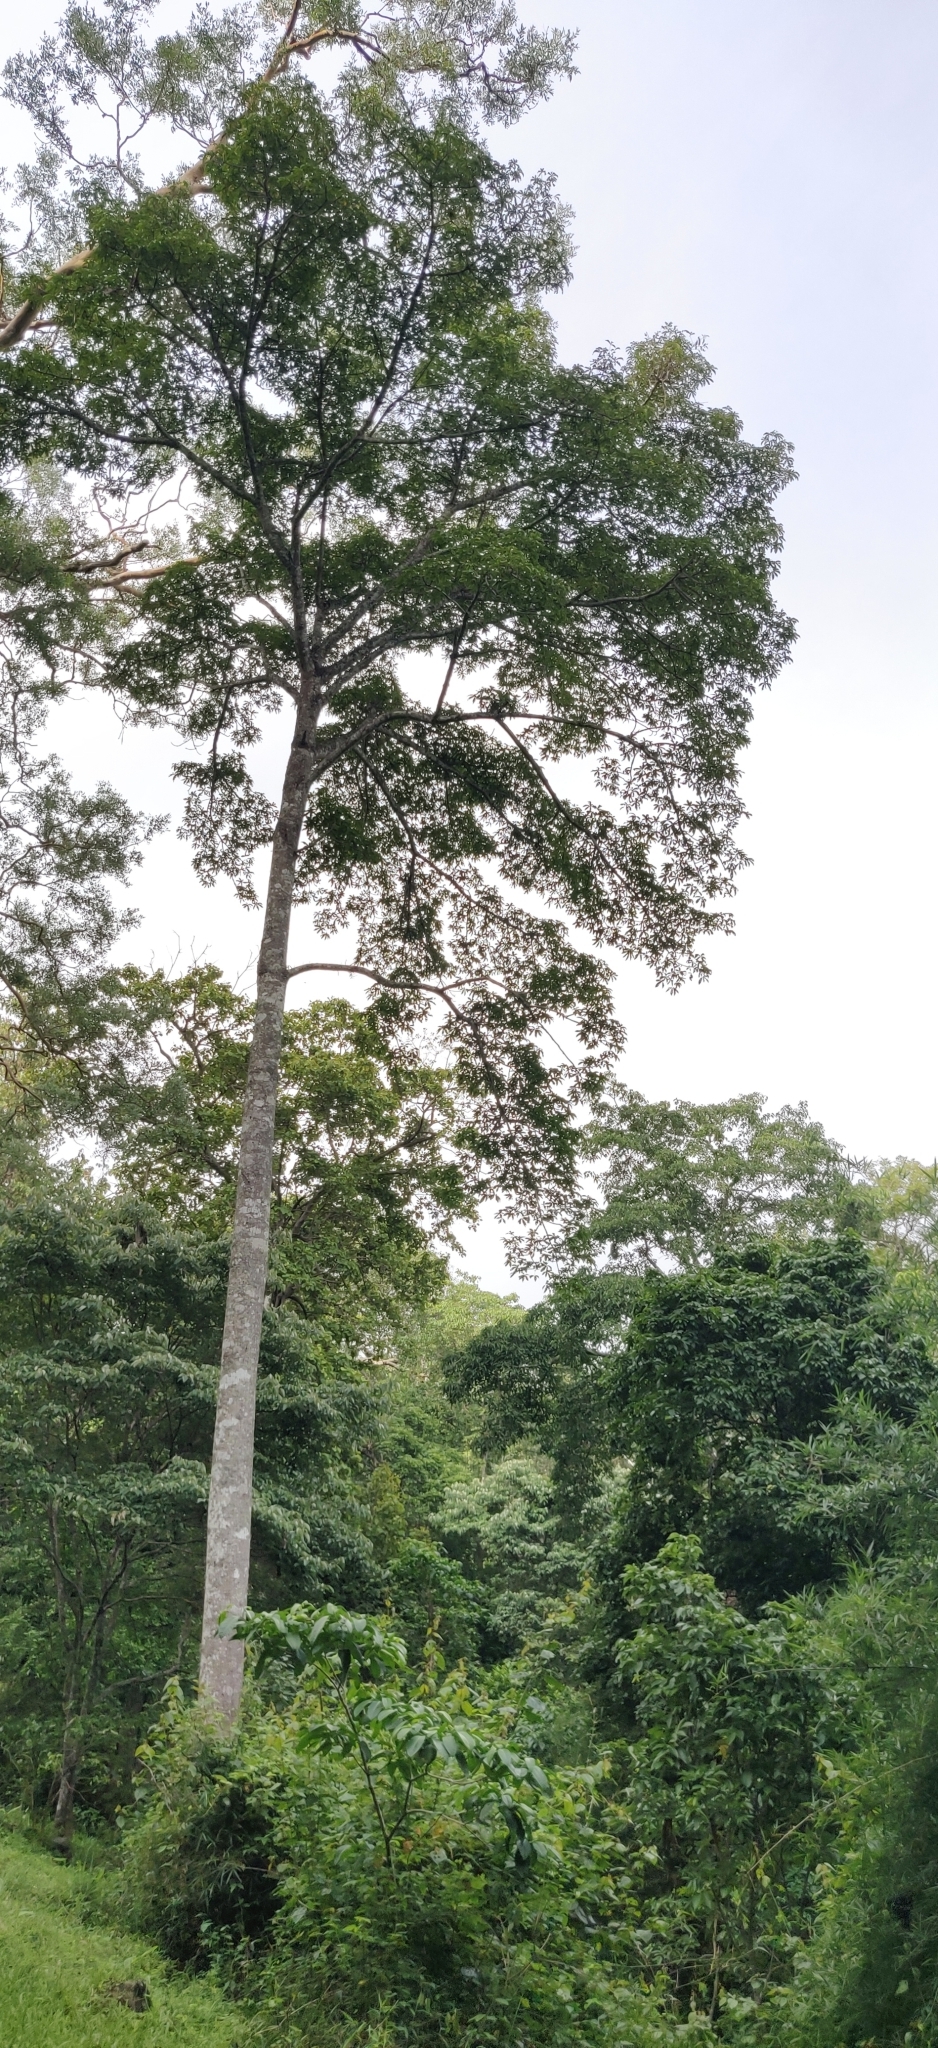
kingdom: Plantae
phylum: Tracheophyta
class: Magnoliopsida
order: Malvales
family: Malvaceae
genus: Bombax
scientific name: Bombax ceiba
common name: Northern-cottonwood
